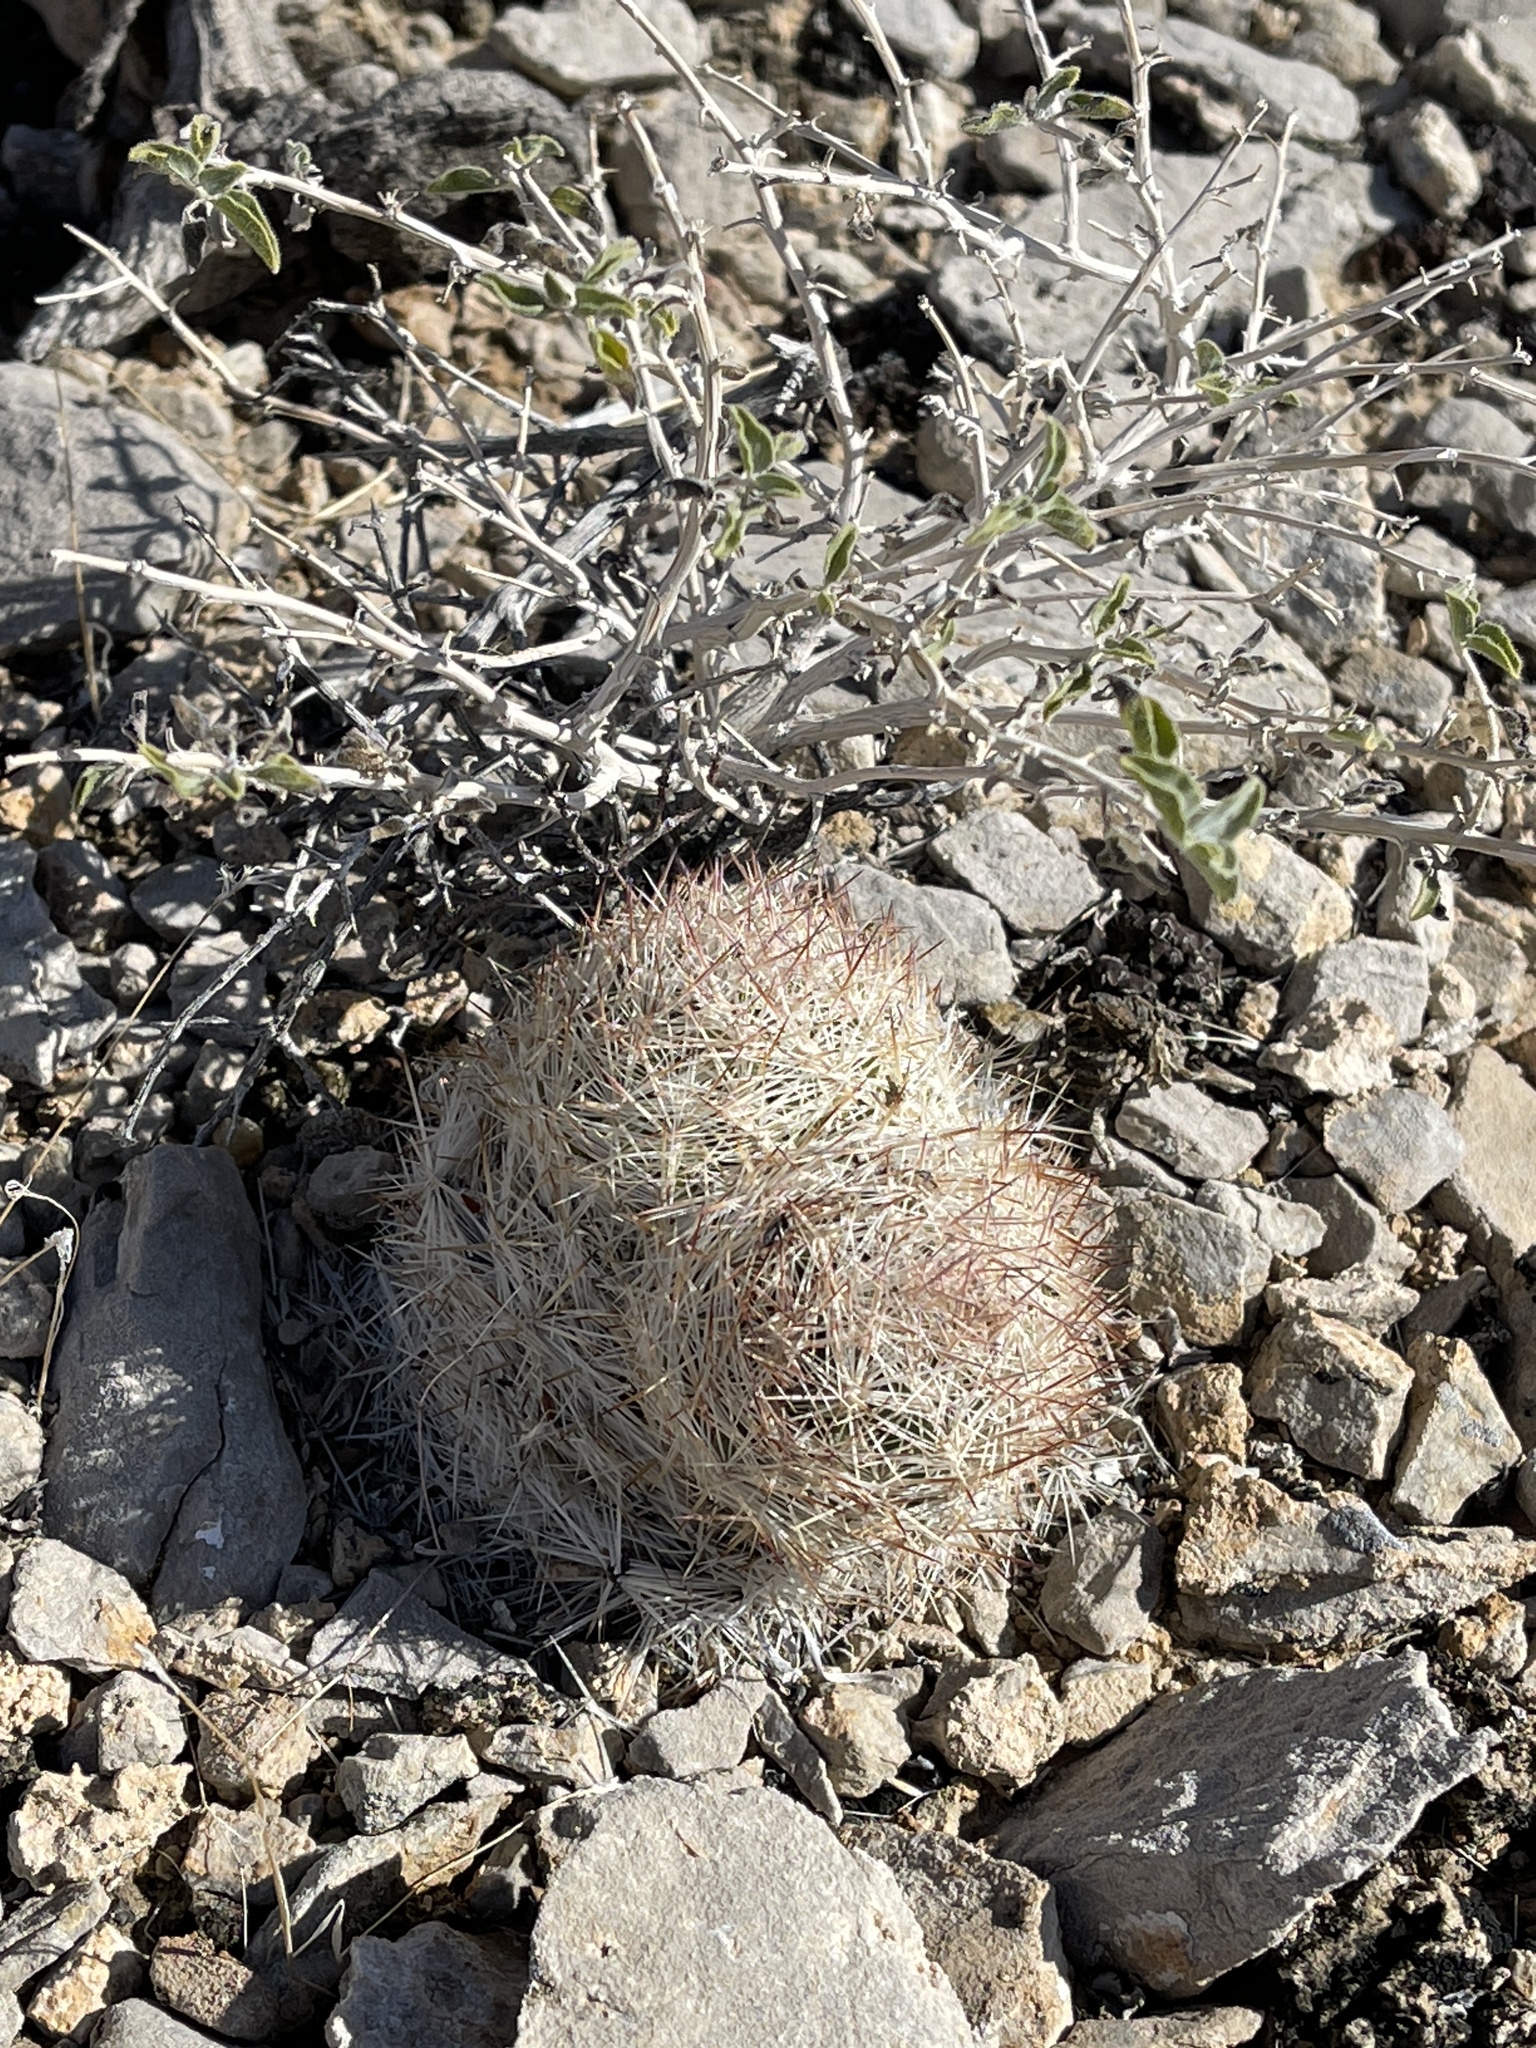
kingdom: Plantae
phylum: Tracheophyta
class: Magnoliopsida
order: Caryophyllales
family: Cactaceae
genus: Pelecyphora
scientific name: Pelecyphora dasyacantha
